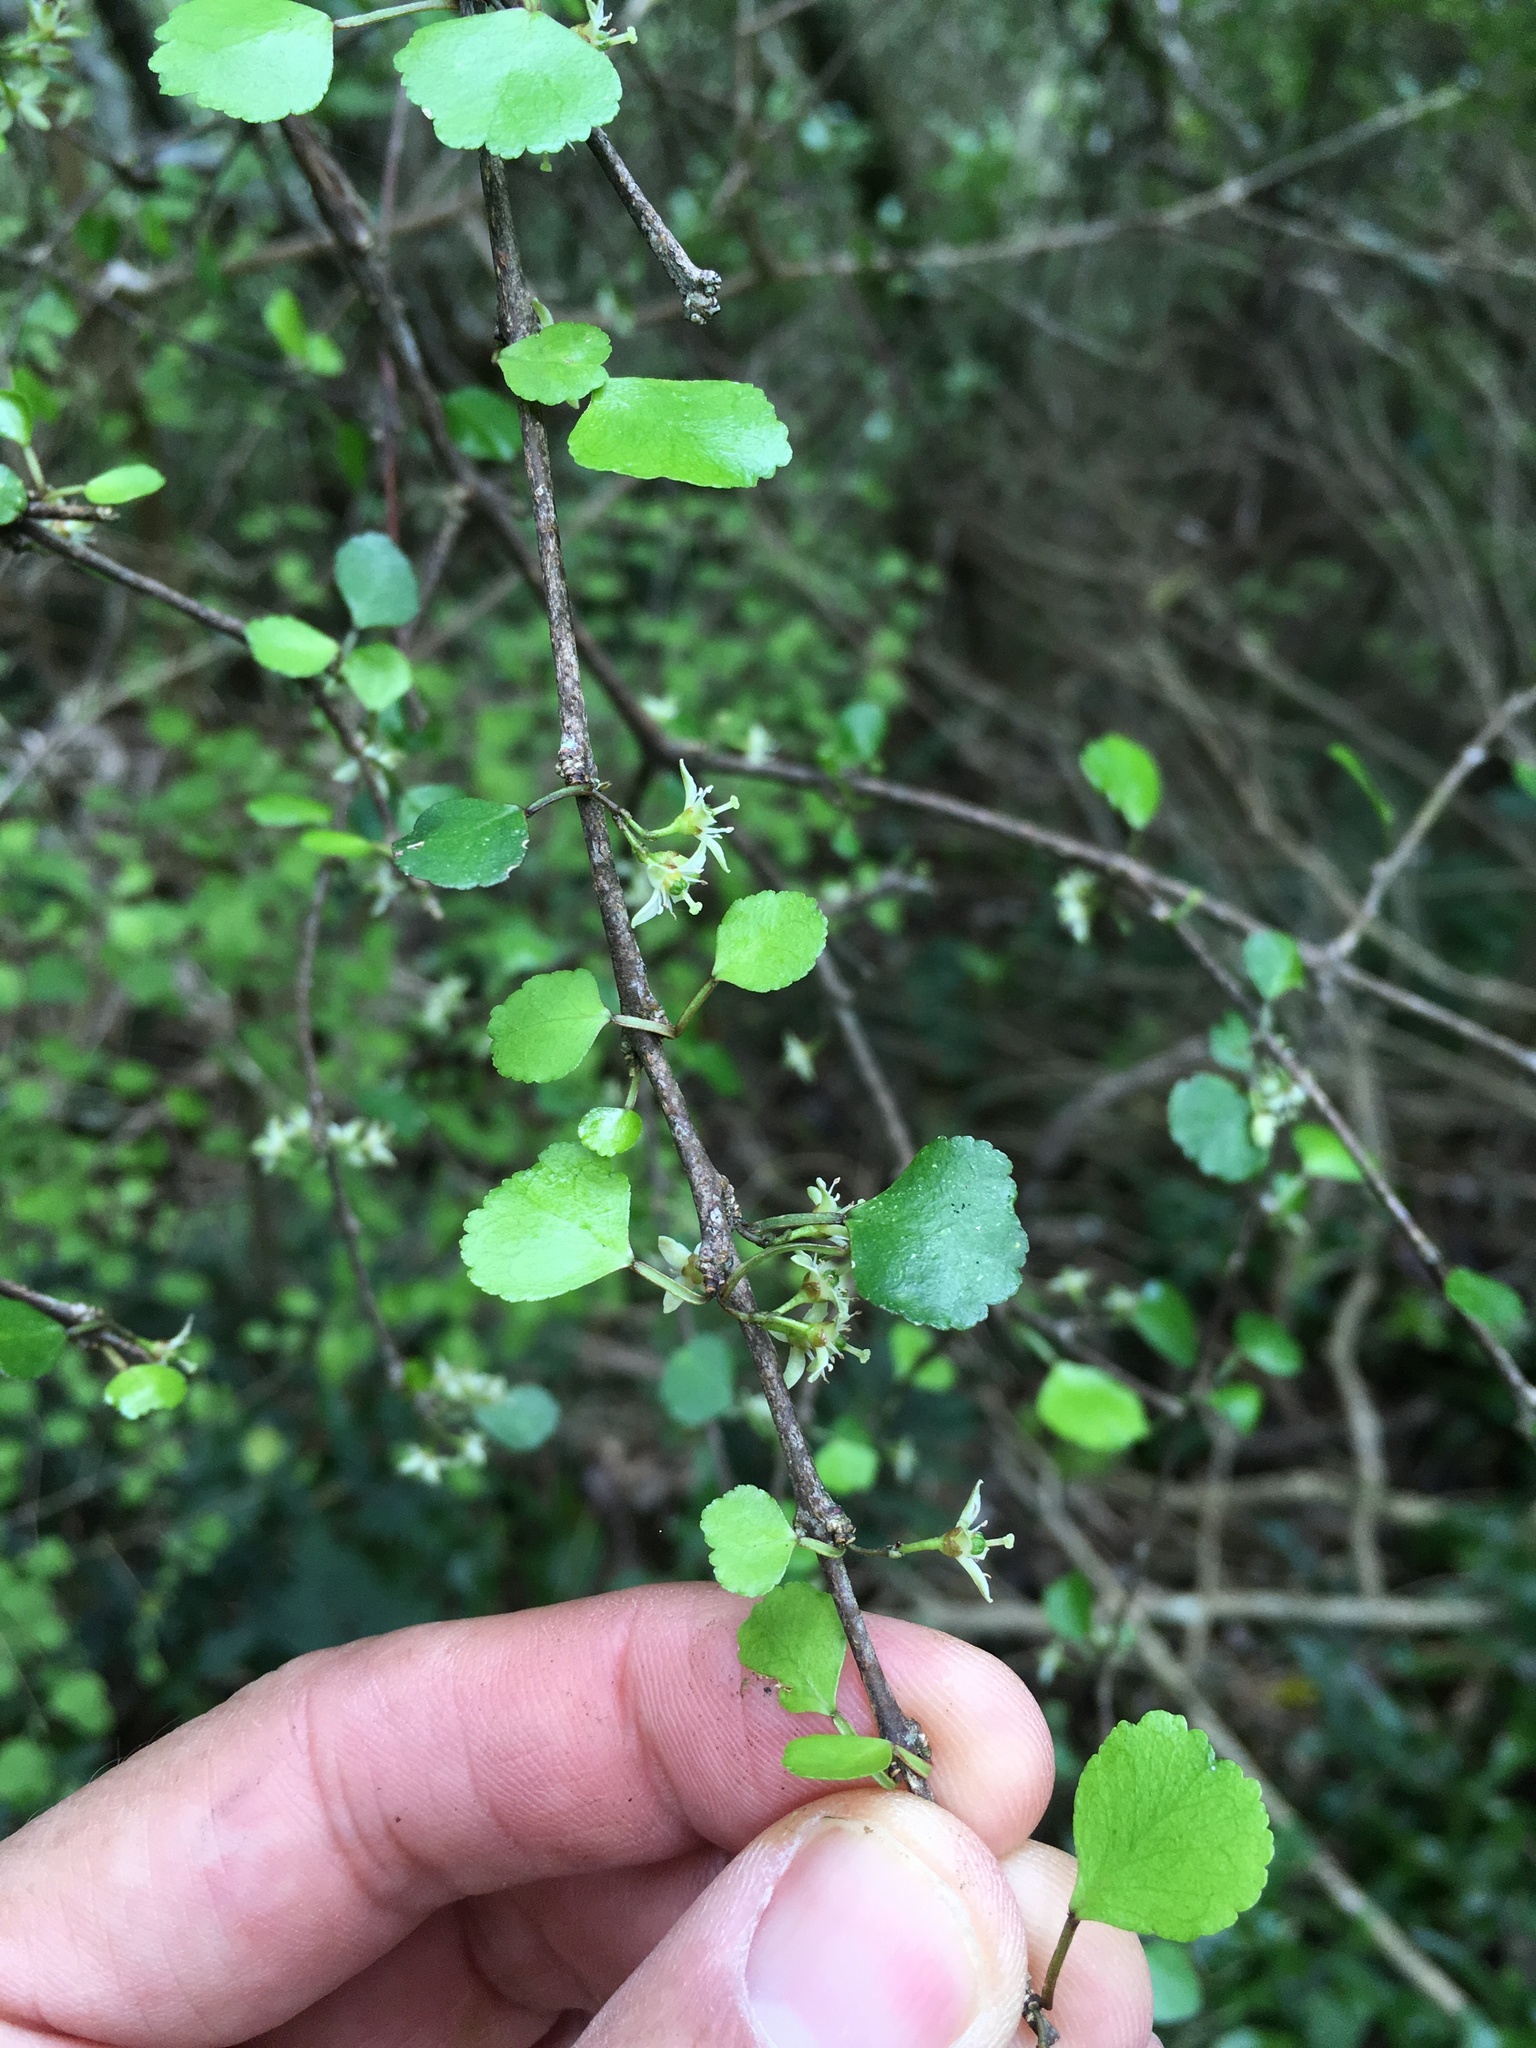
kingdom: Plantae
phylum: Tracheophyta
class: Magnoliopsida
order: Sapindales
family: Rutaceae
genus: Melicope
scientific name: Melicope simplex
